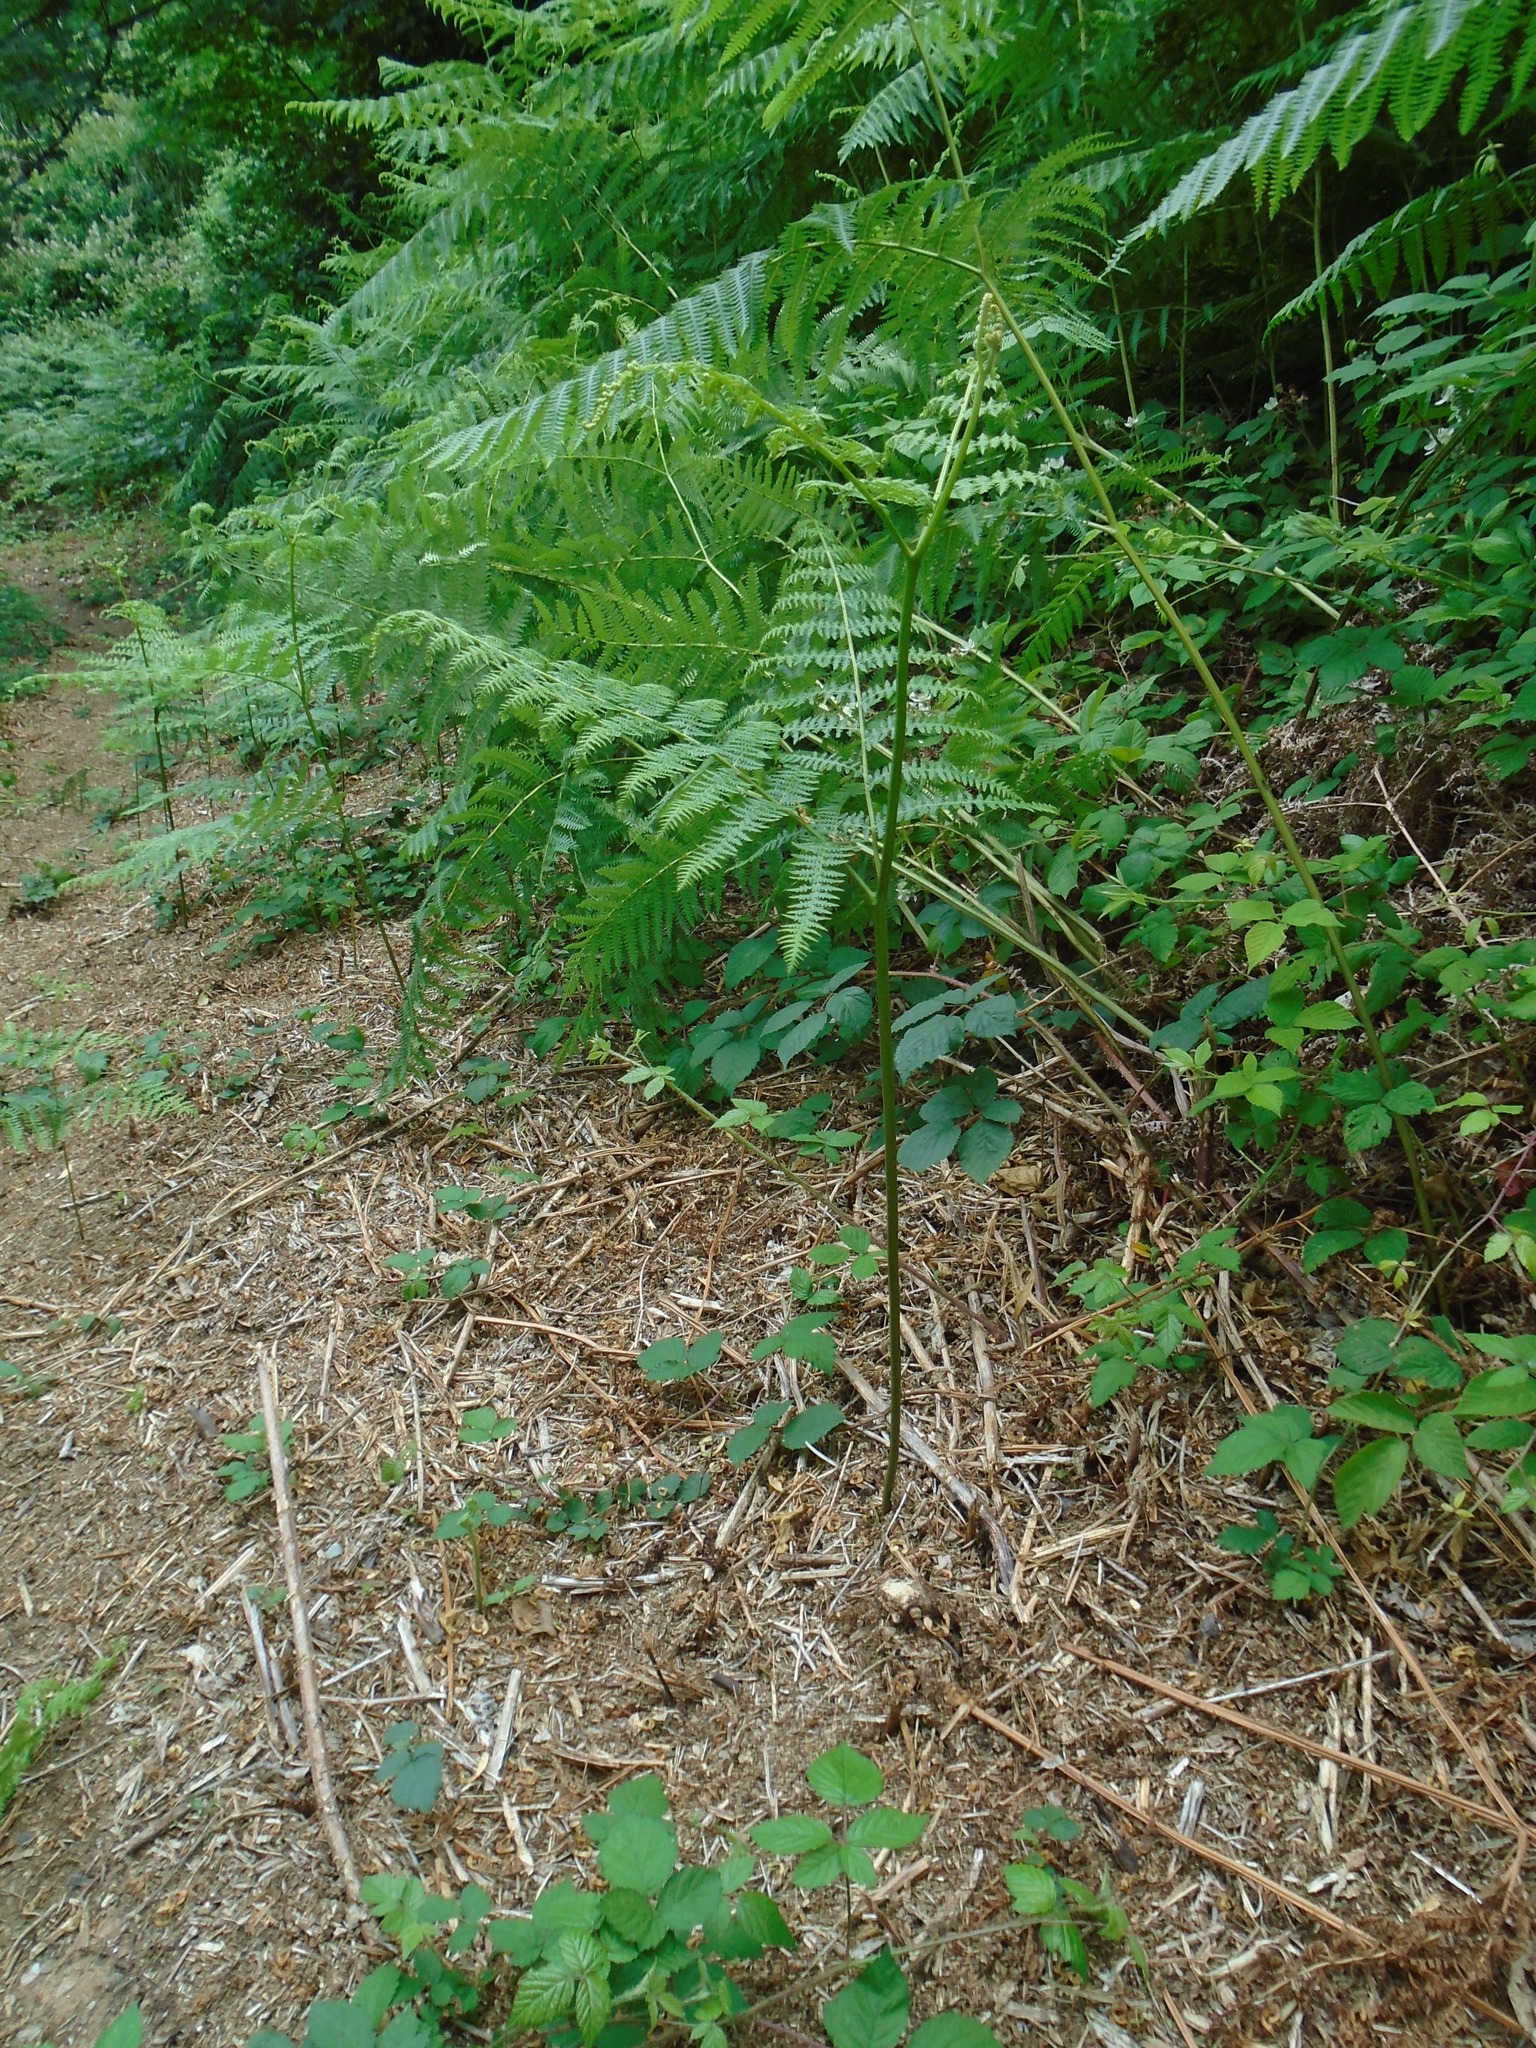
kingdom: Plantae
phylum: Tracheophyta
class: Polypodiopsida
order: Polypodiales
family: Dennstaedtiaceae
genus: Pteridium
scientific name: Pteridium aquilinum
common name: Bracken
